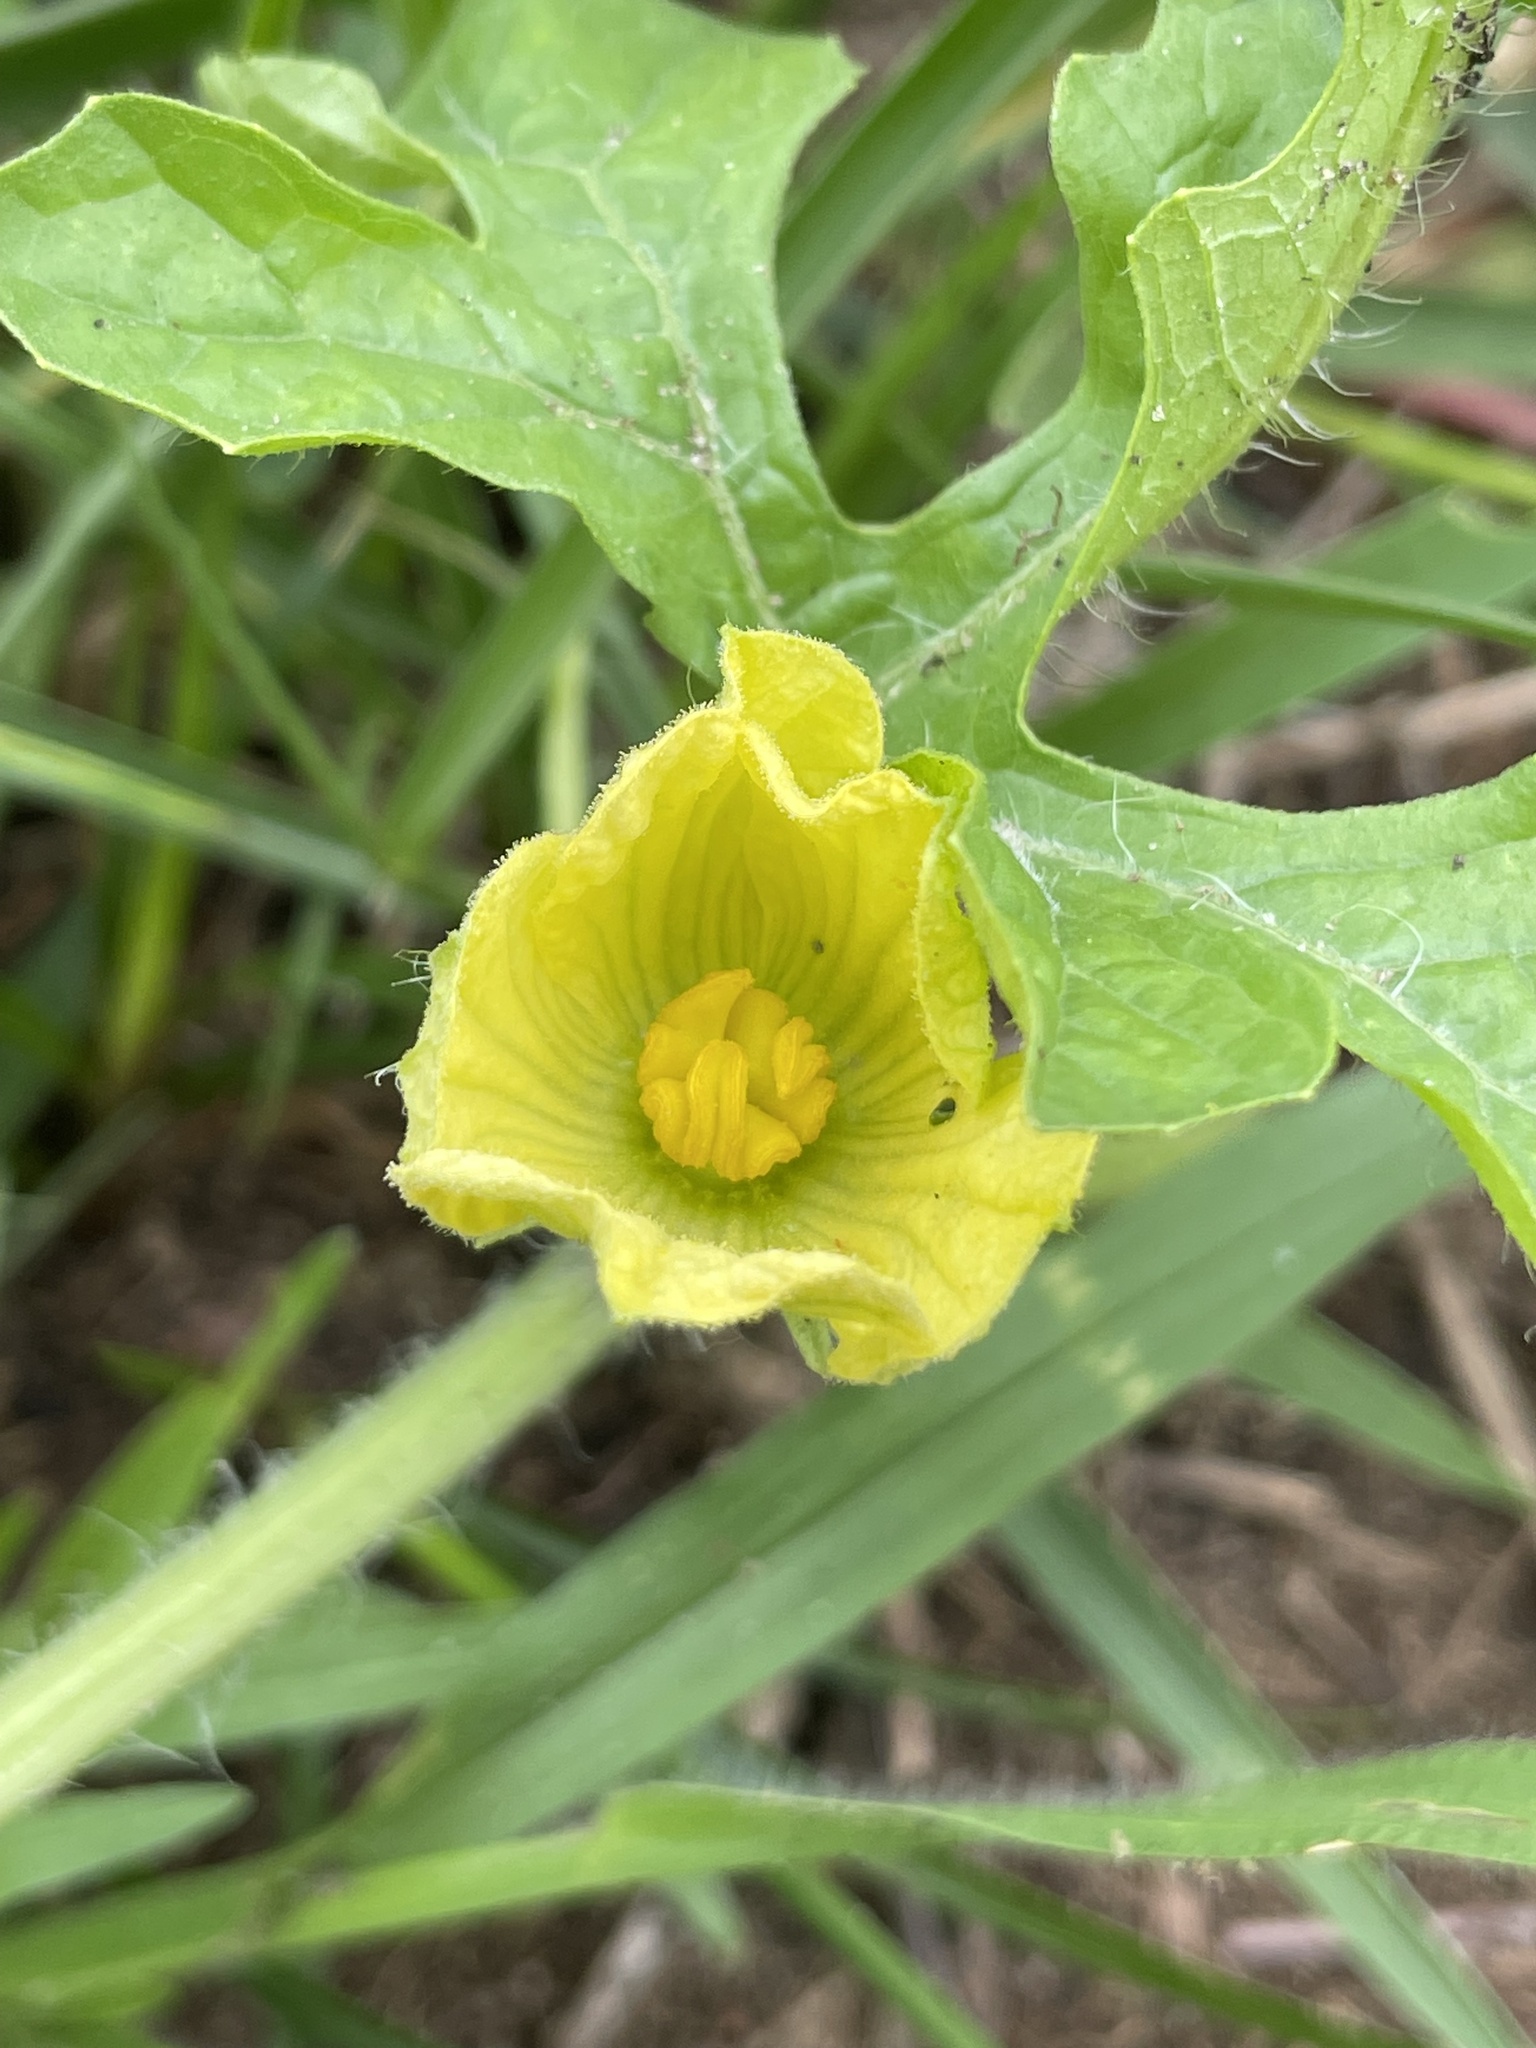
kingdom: Plantae
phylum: Tracheophyta
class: Magnoliopsida
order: Cucurbitales
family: Cucurbitaceae
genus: Citrullus
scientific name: Citrullus lanatus
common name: Watermelon
